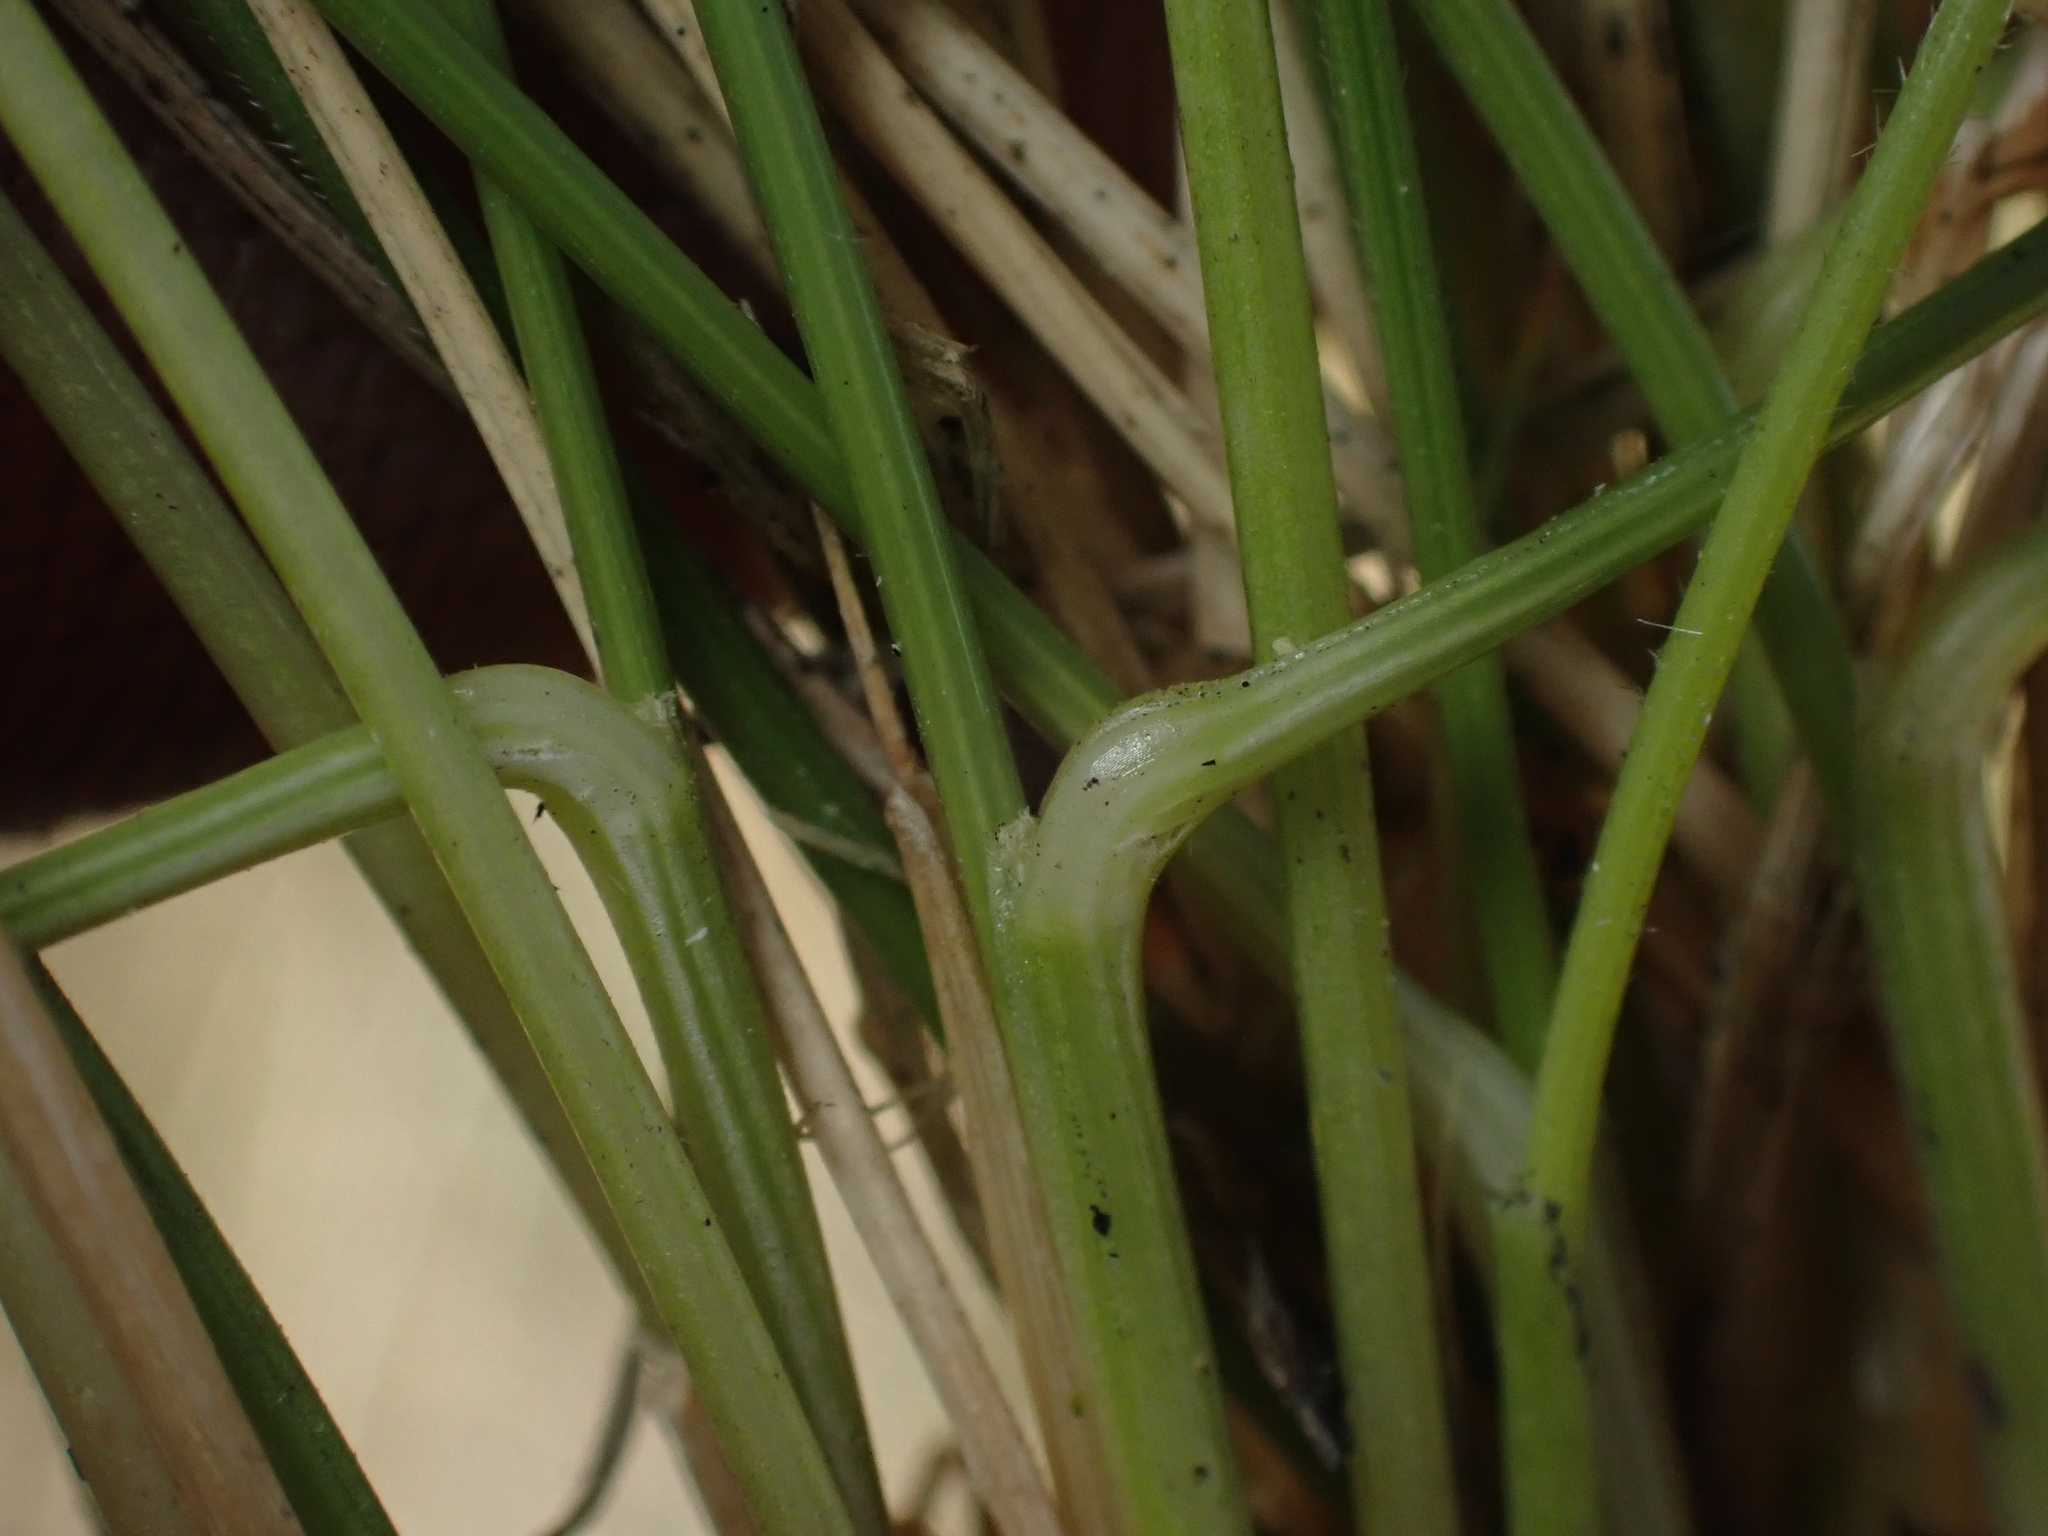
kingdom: Plantae
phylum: Tracheophyta
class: Liliopsida
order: Poales
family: Poaceae
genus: Festuca
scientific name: Festuca
